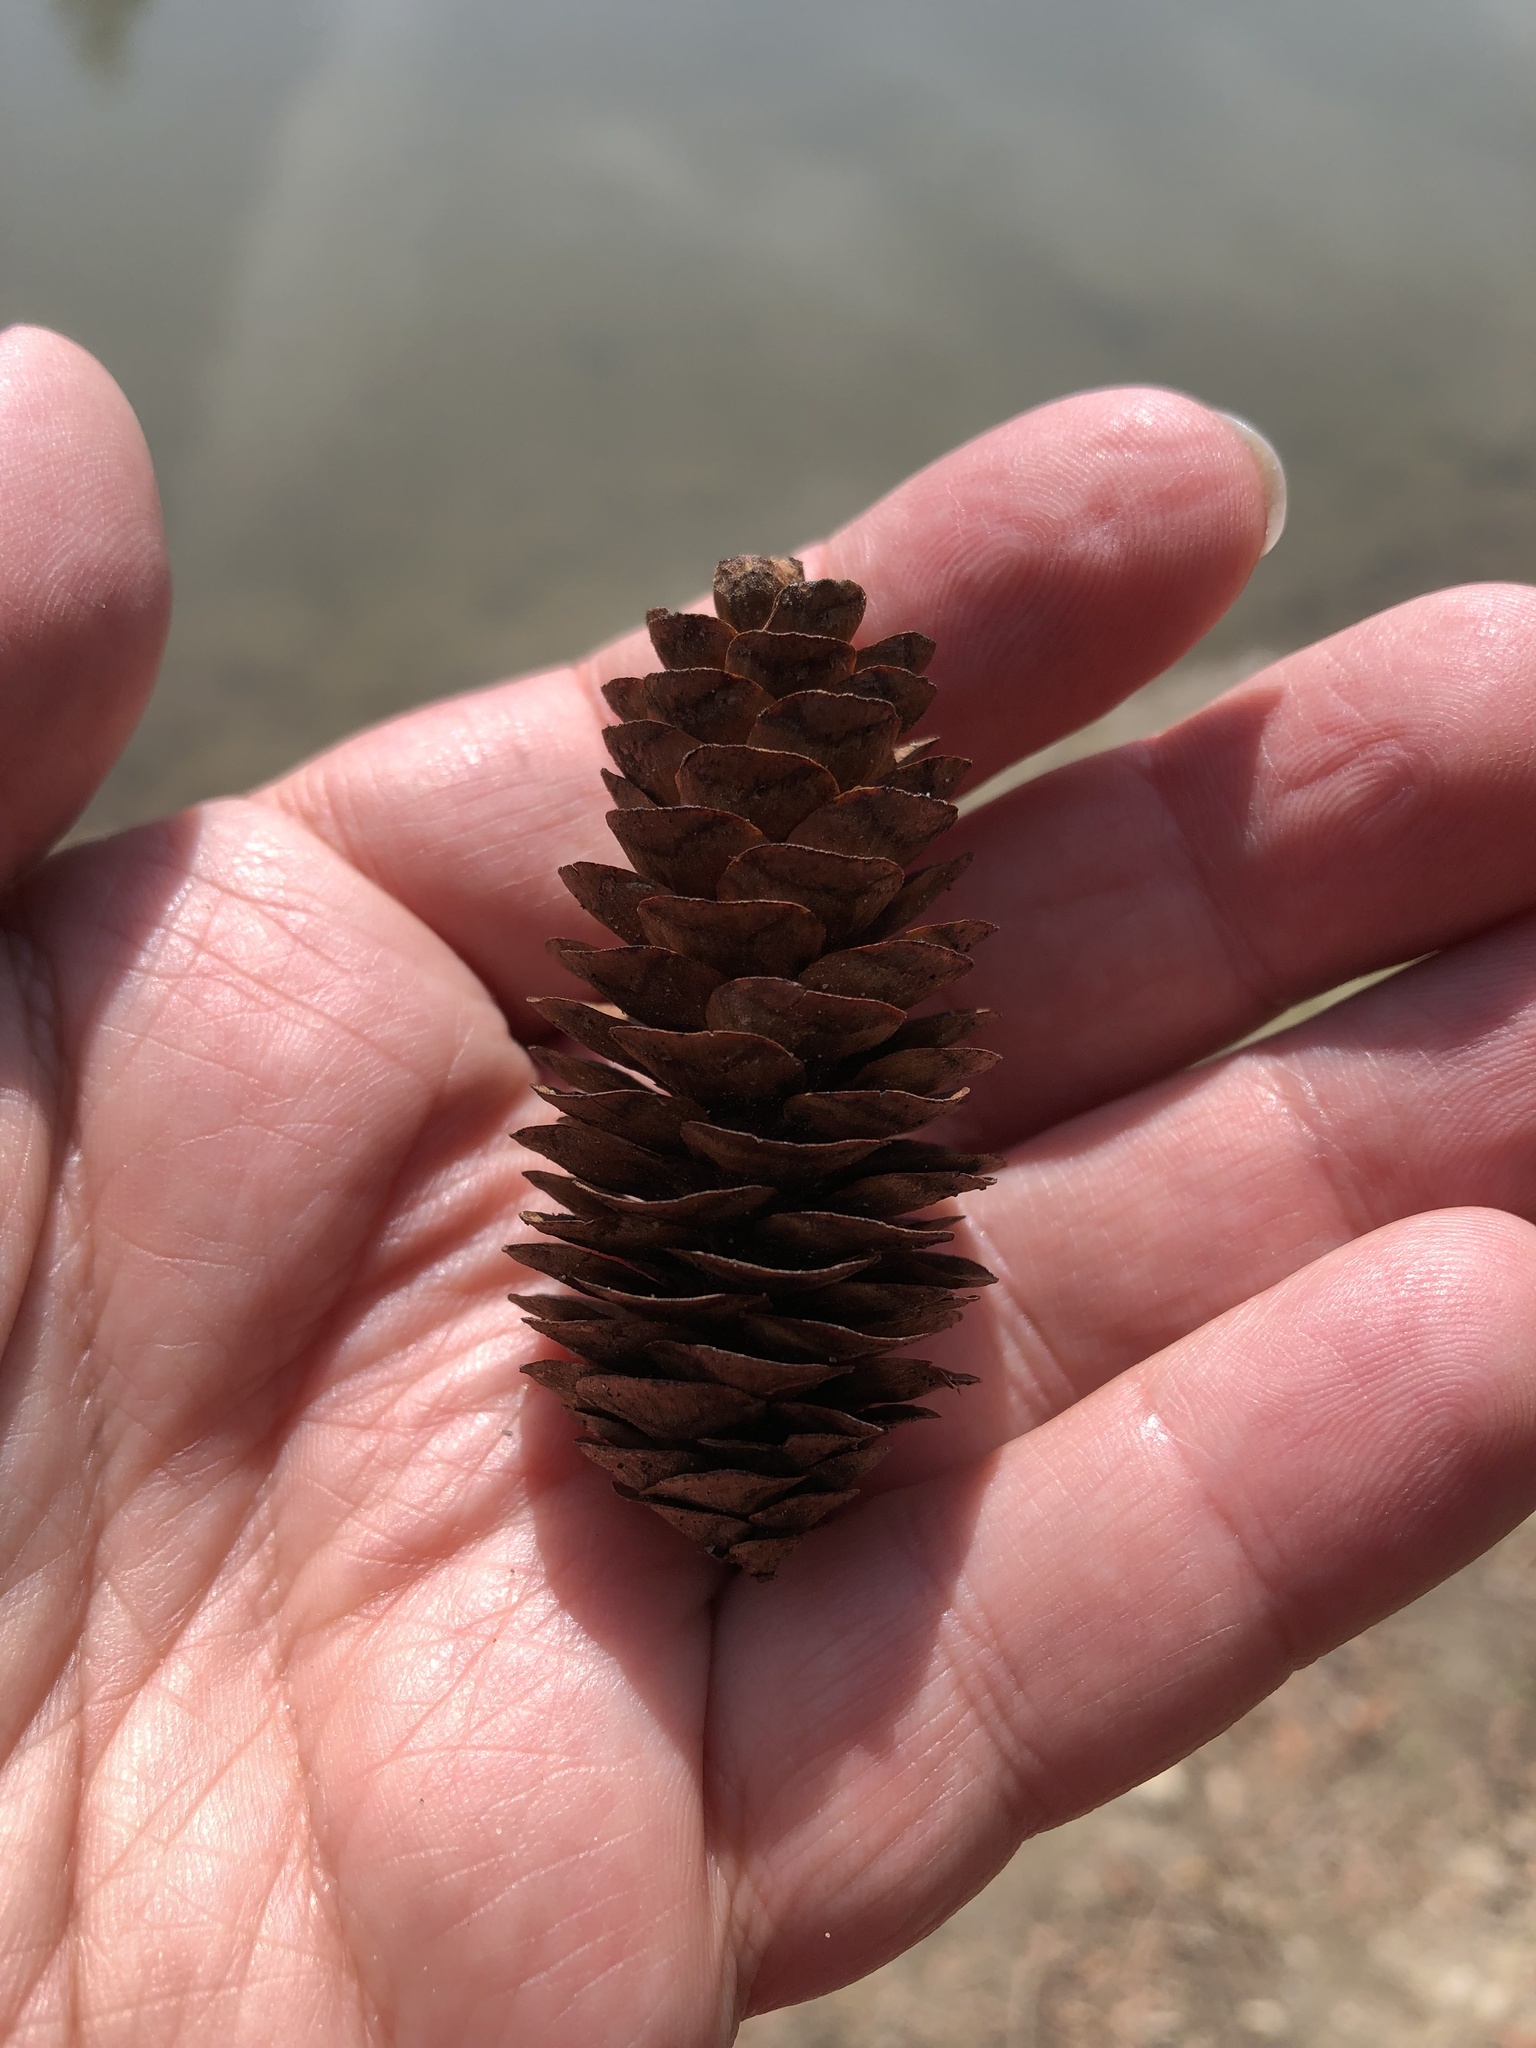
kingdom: Plantae
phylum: Tracheophyta
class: Pinopsida
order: Pinales
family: Pinaceae
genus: Picea
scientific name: Picea glauca
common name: White spruce
